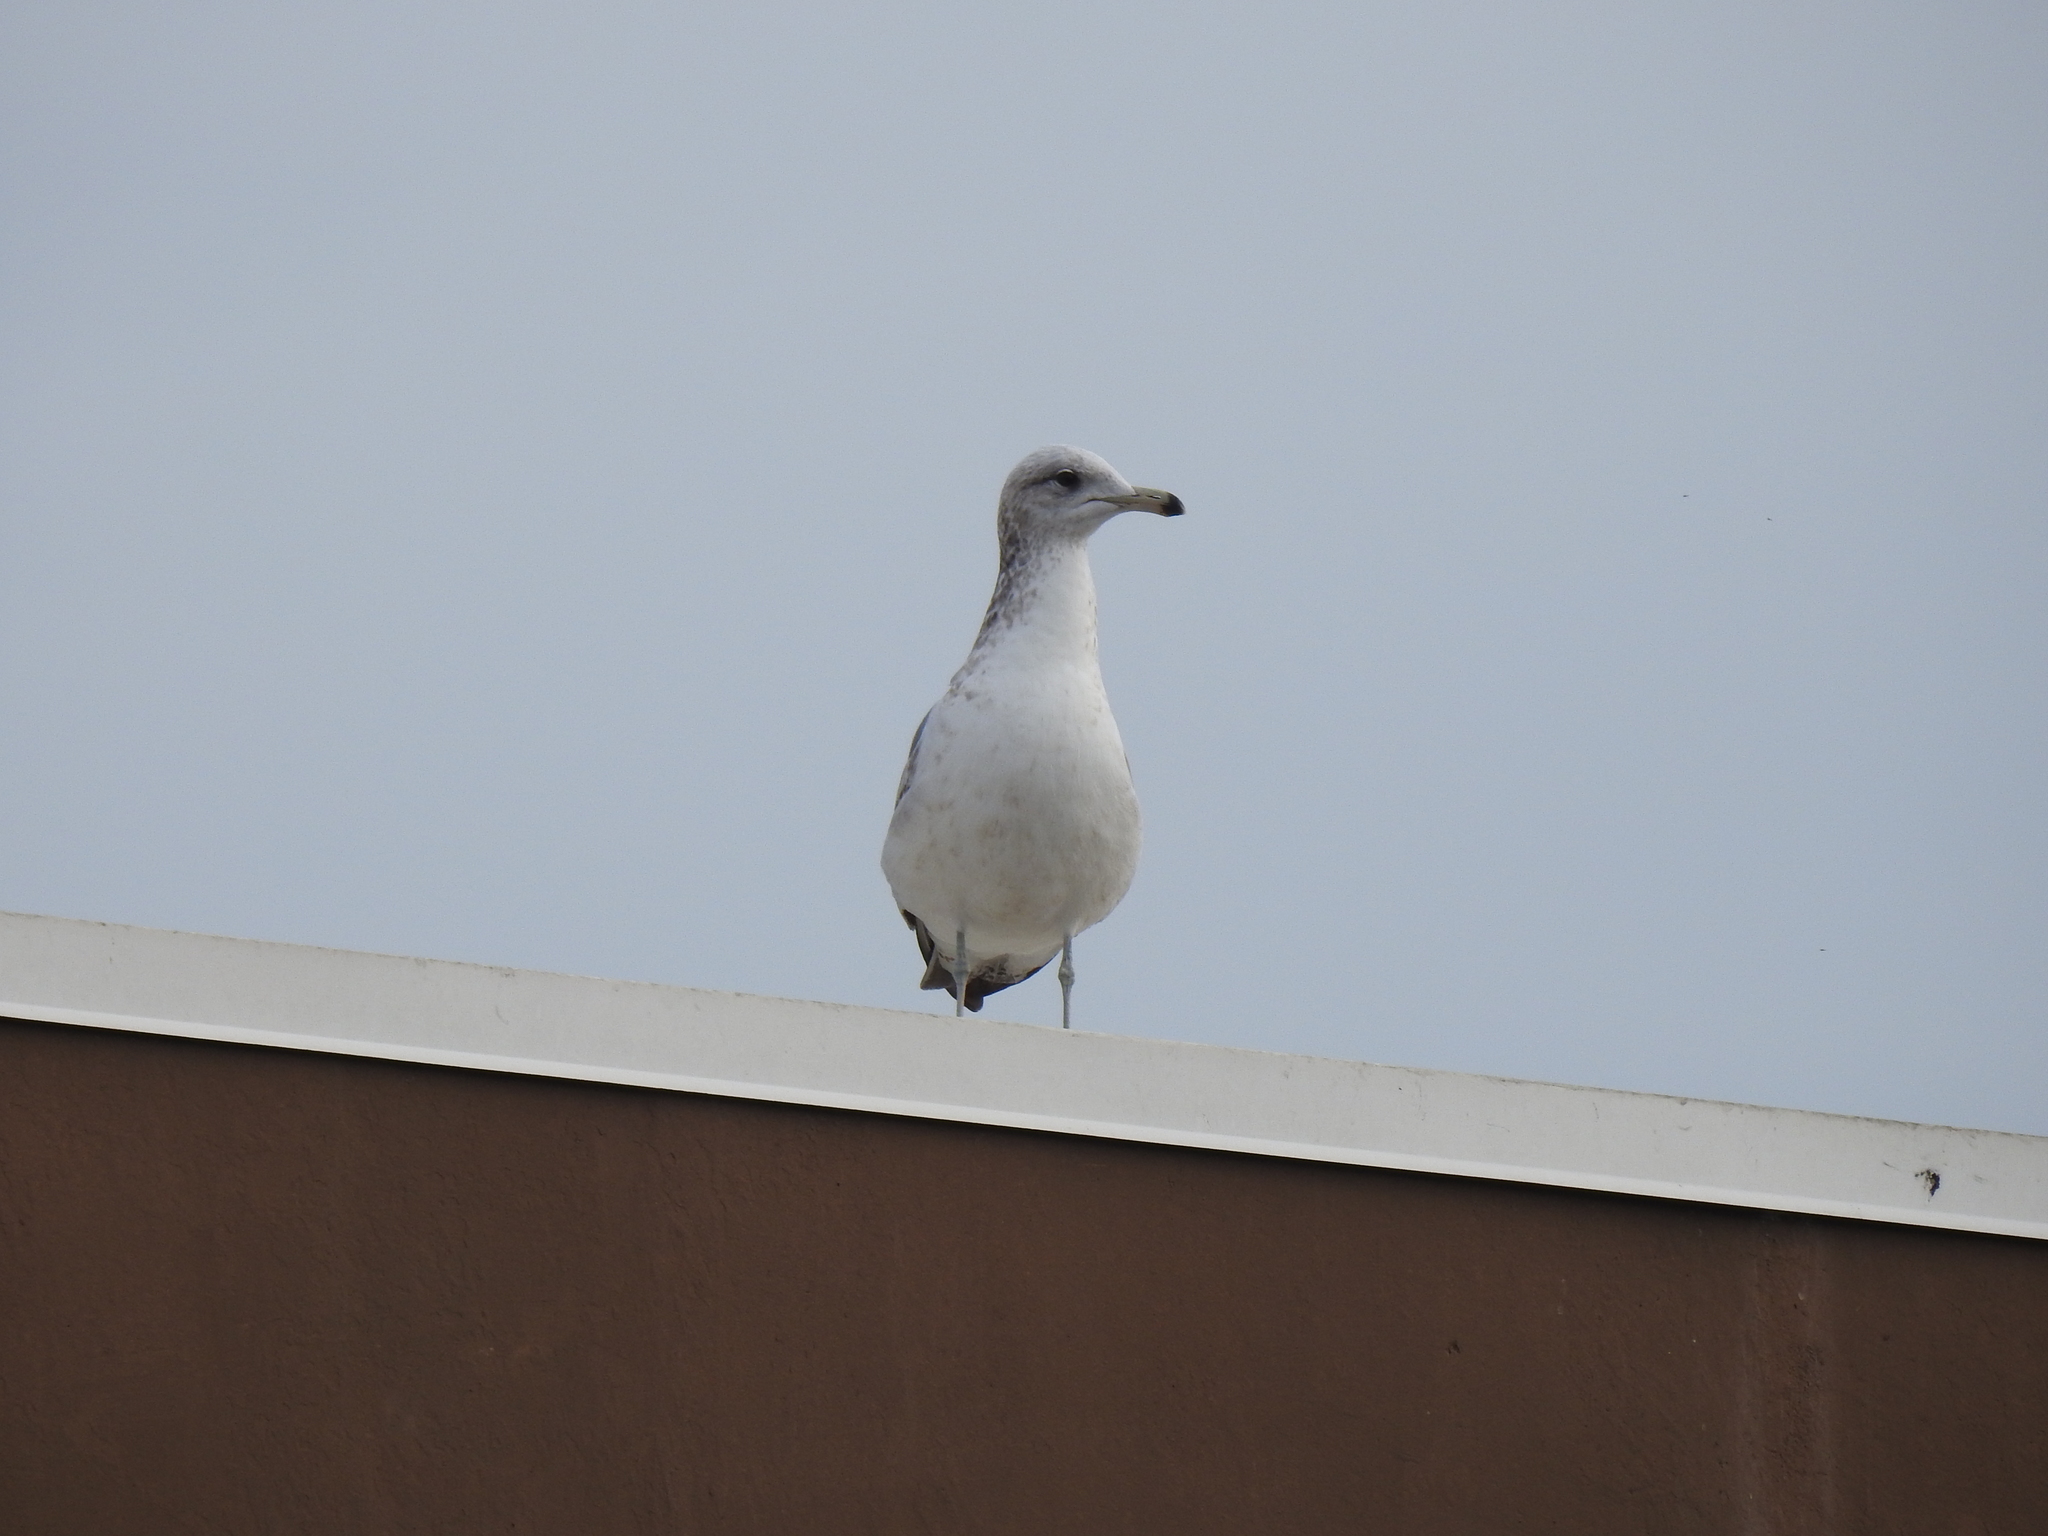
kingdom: Animalia
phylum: Chordata
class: Aves
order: Charadriiformes
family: Laridae
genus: Larus
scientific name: Larus californicus
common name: California gull
